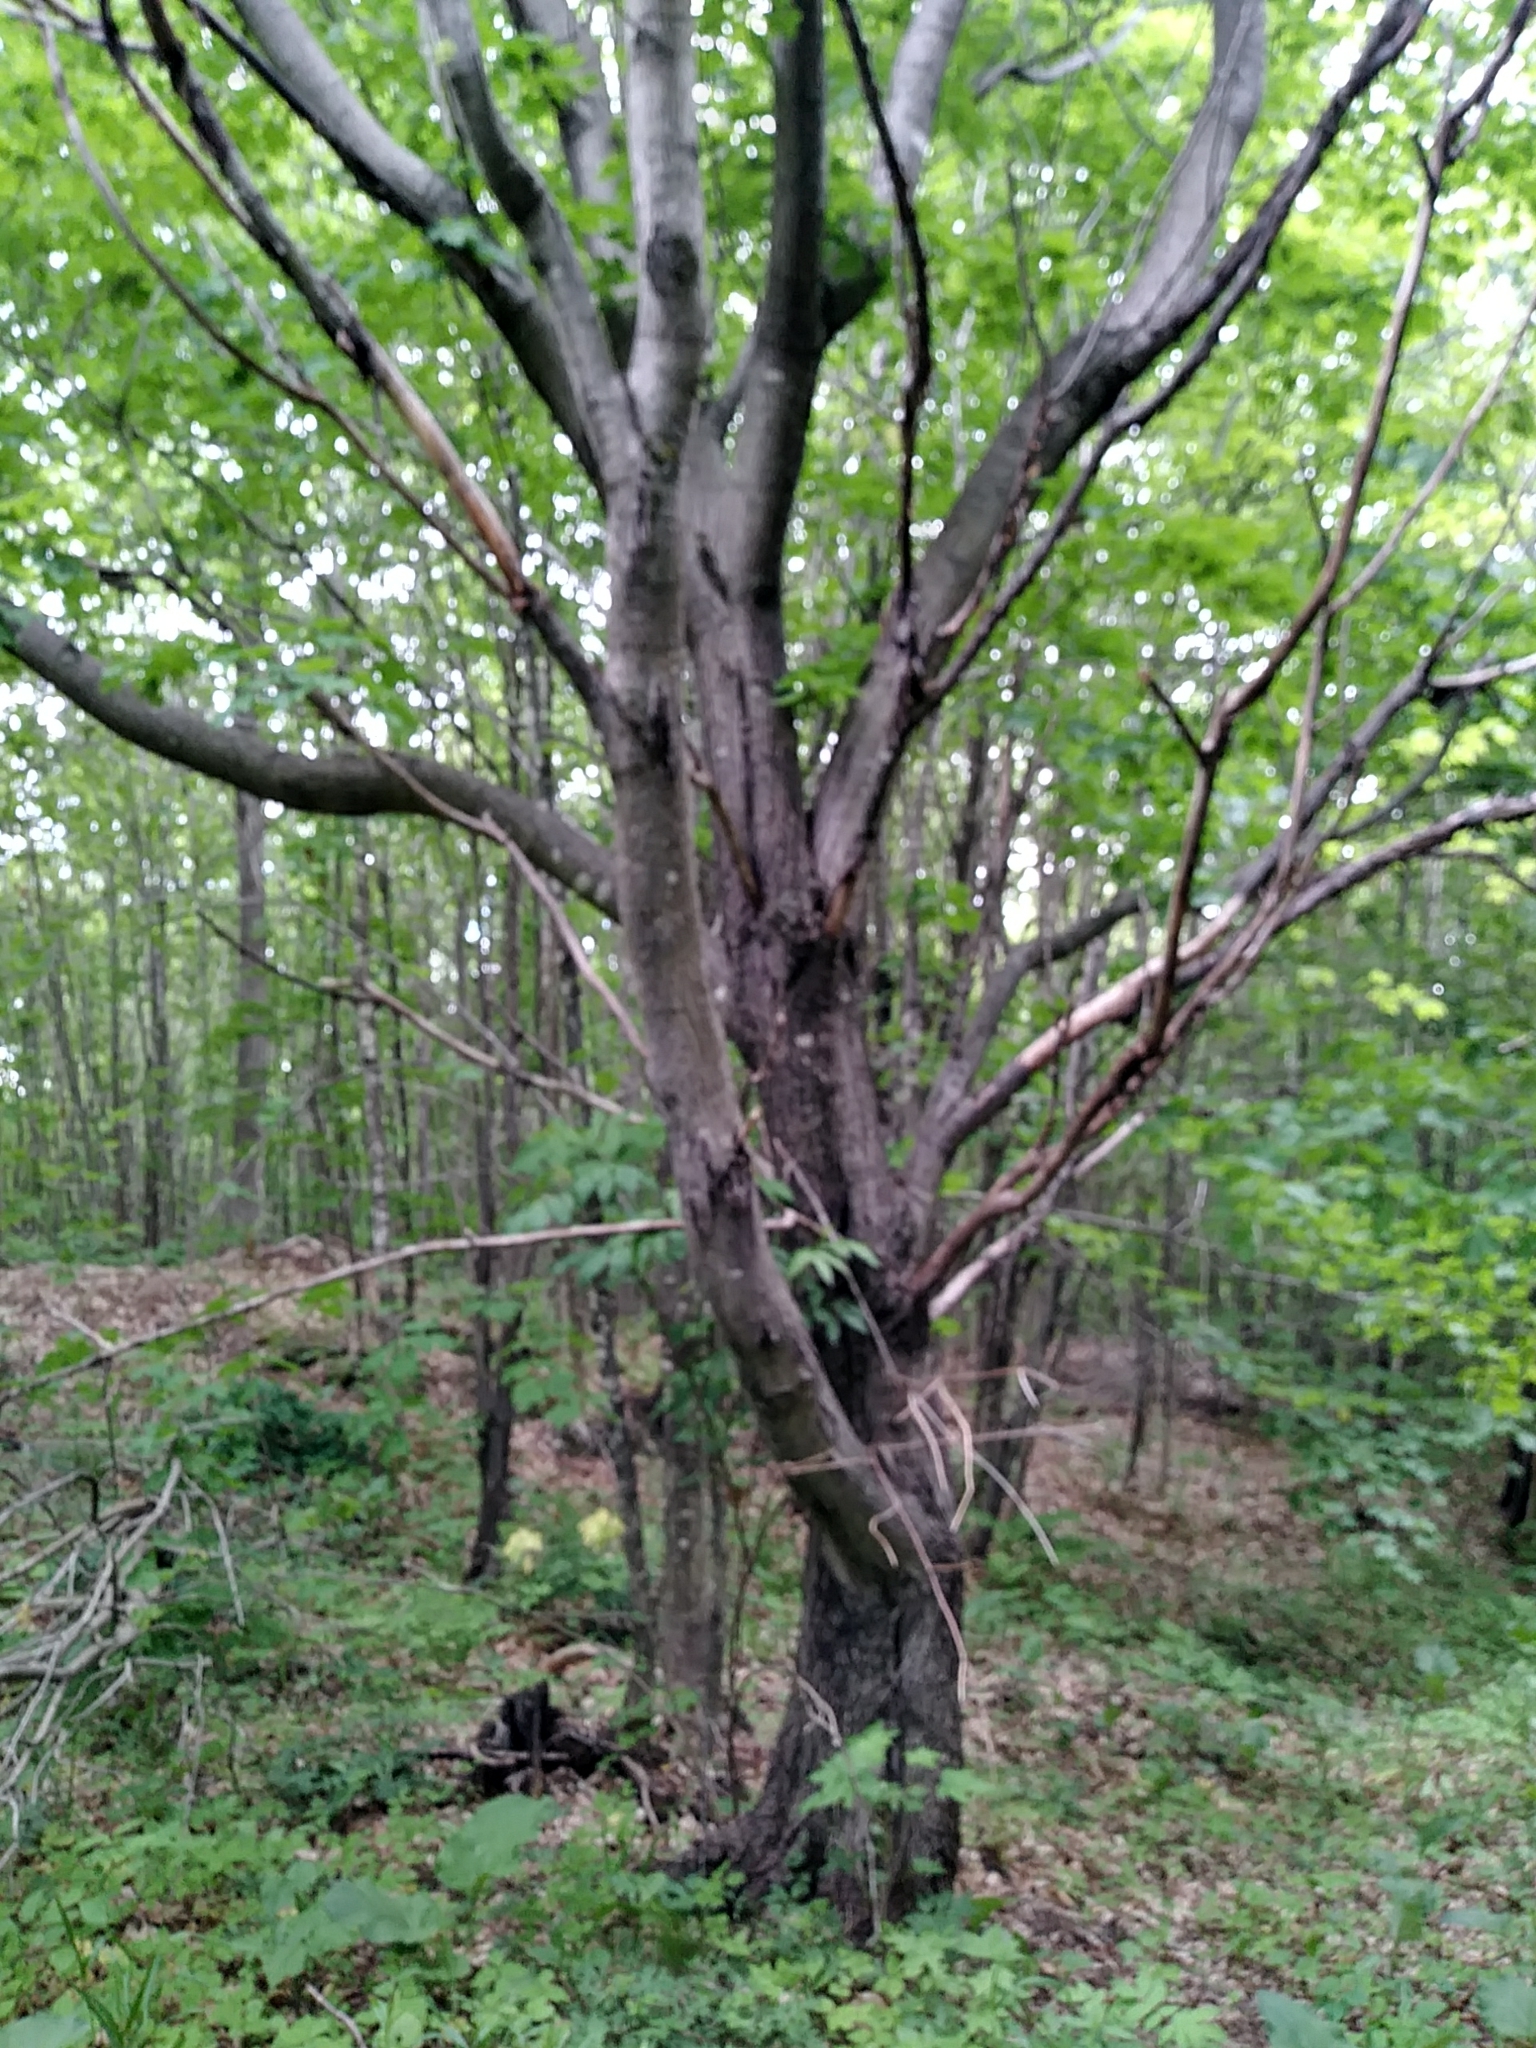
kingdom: Plantae
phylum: Tracheophyta
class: Magnoliopsida
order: Fagales
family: Juglandaceae
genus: Juglans
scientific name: Juglans cinerea
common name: Butternut
